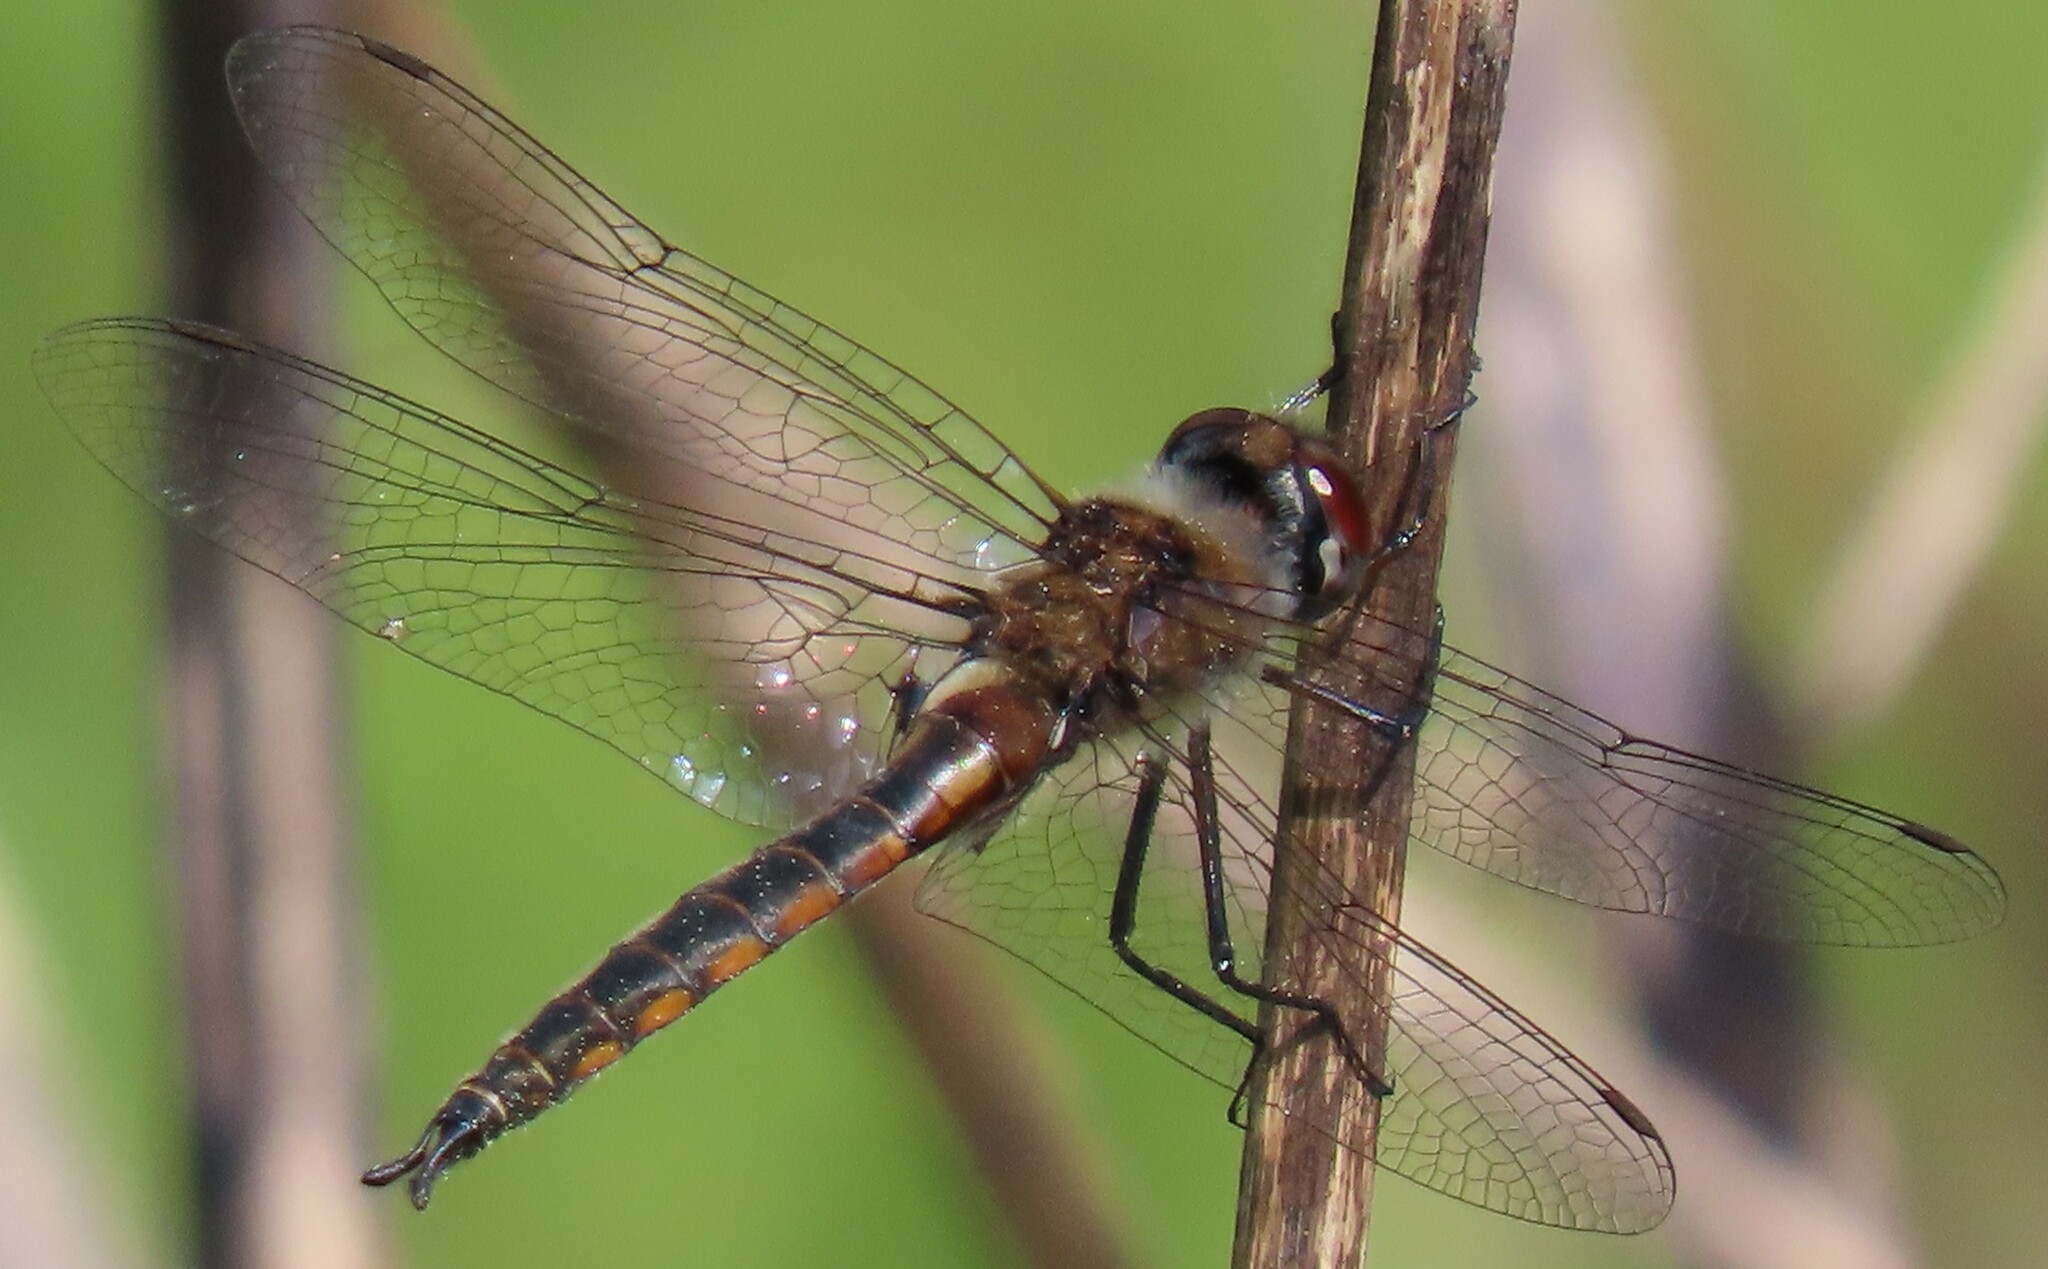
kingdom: Animalia
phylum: Arthropoda
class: Insecta
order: Odonata
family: Corduliidae
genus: Epitheca
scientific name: Epitheca sepia
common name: Sepia baskettail
